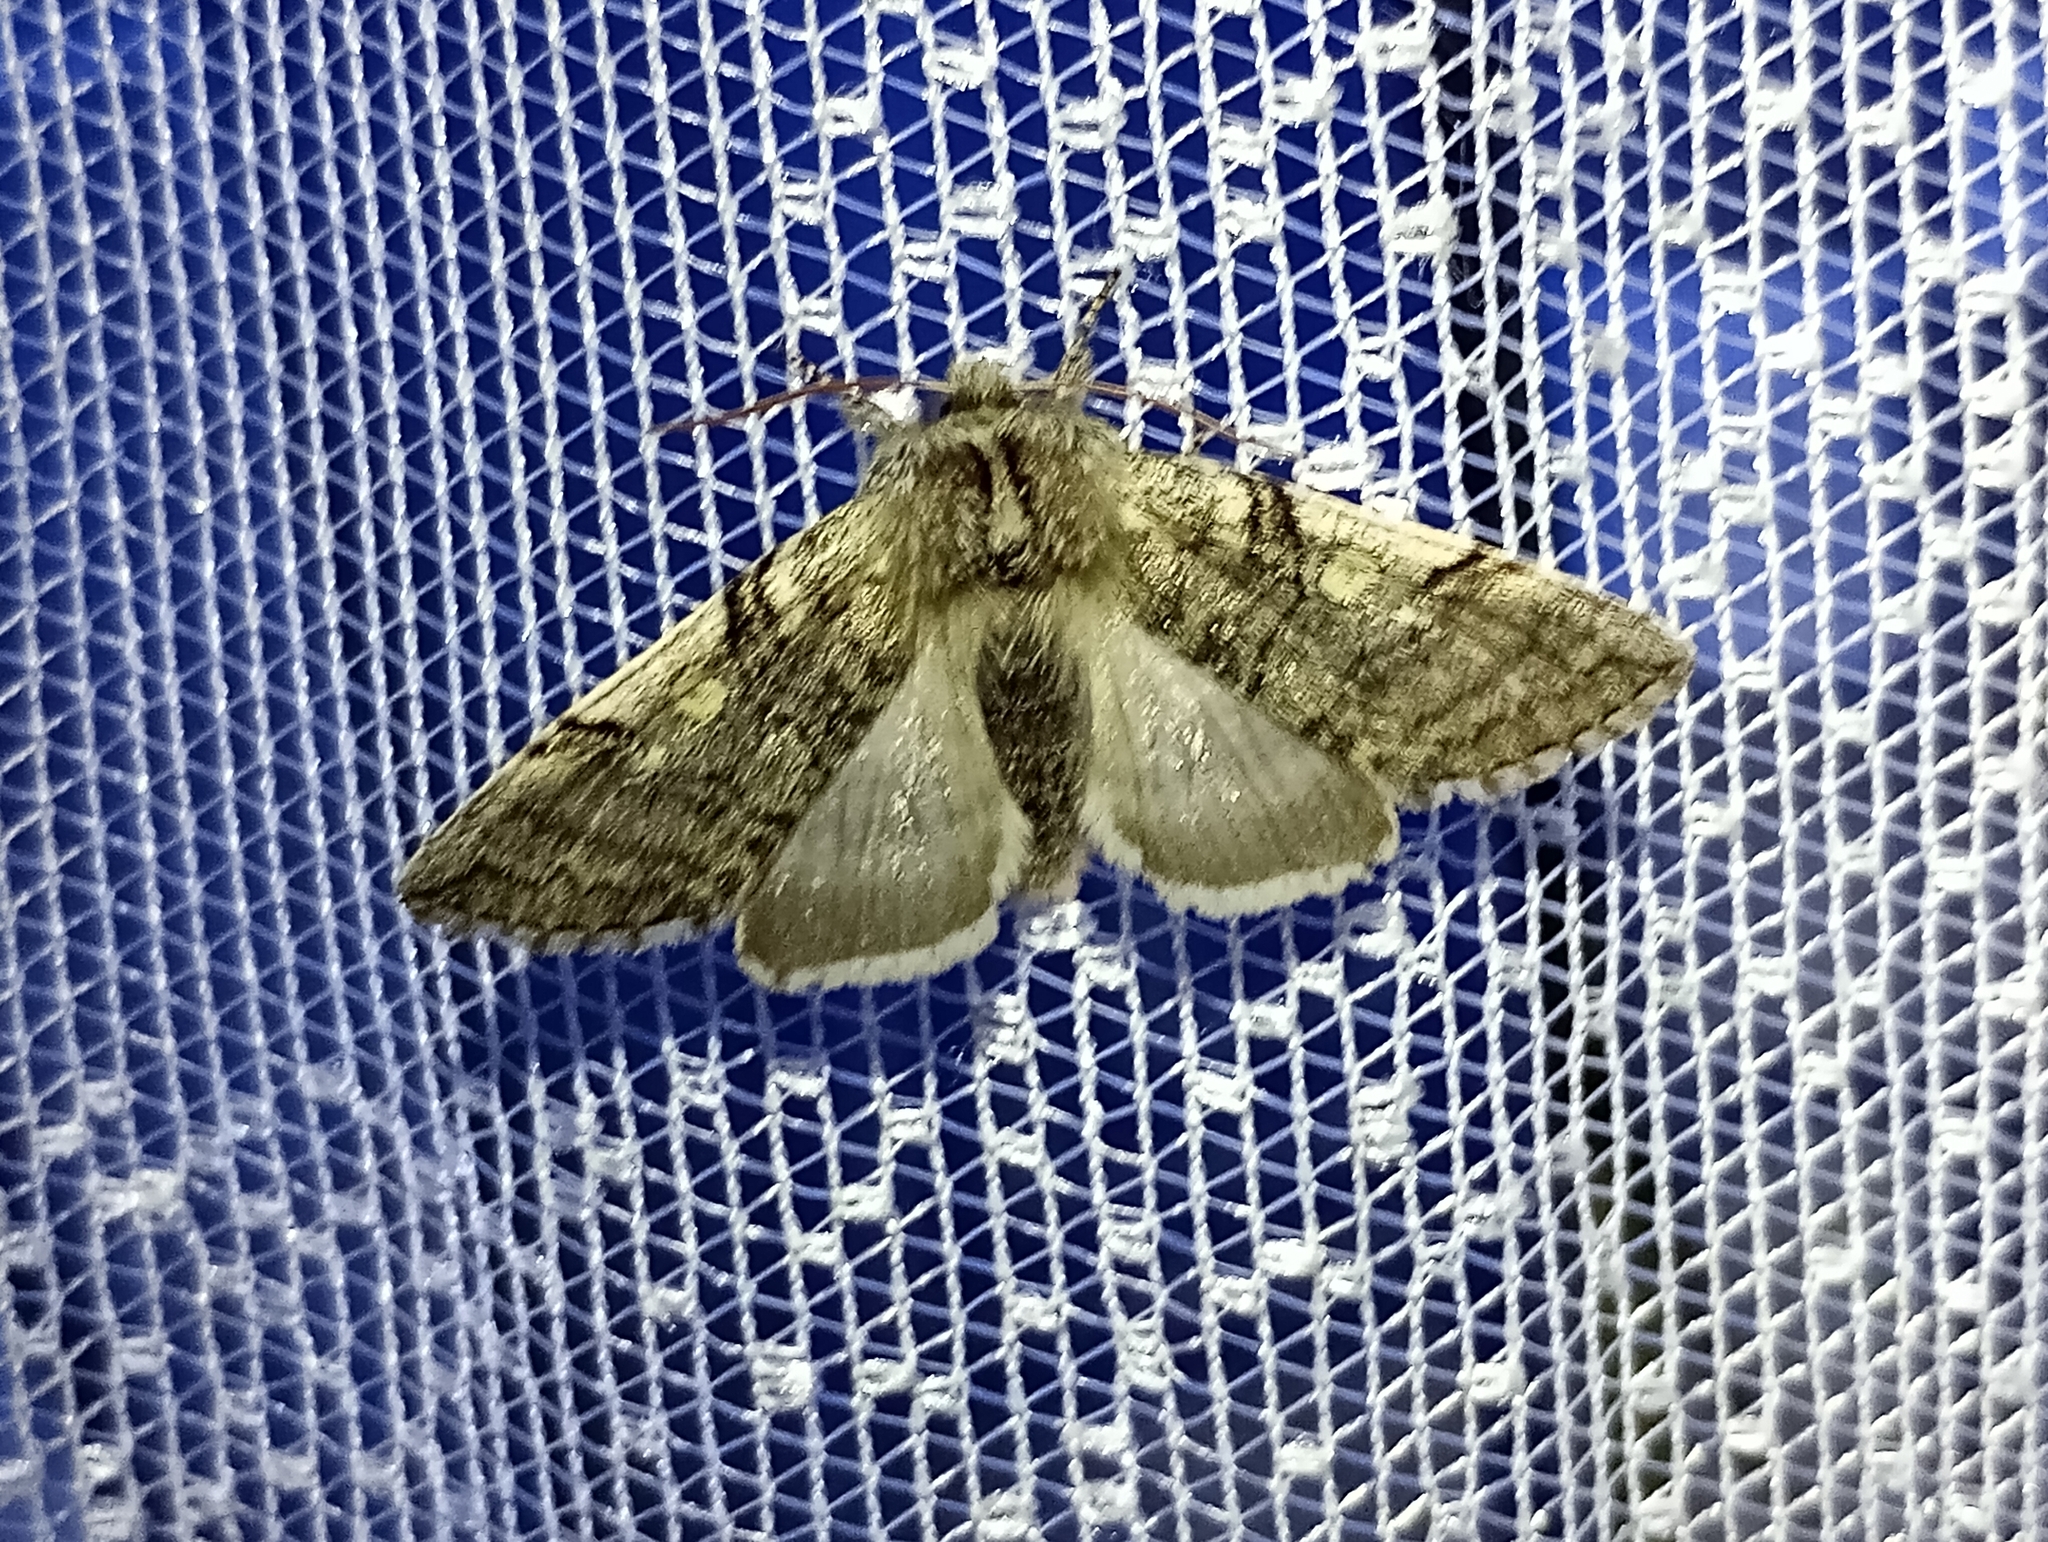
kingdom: Animalia
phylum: Arthropoda
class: Insecta
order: Lepidoptera
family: Drepanidae
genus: Achlya
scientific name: Achlya flavicornis
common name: Yellow horned
